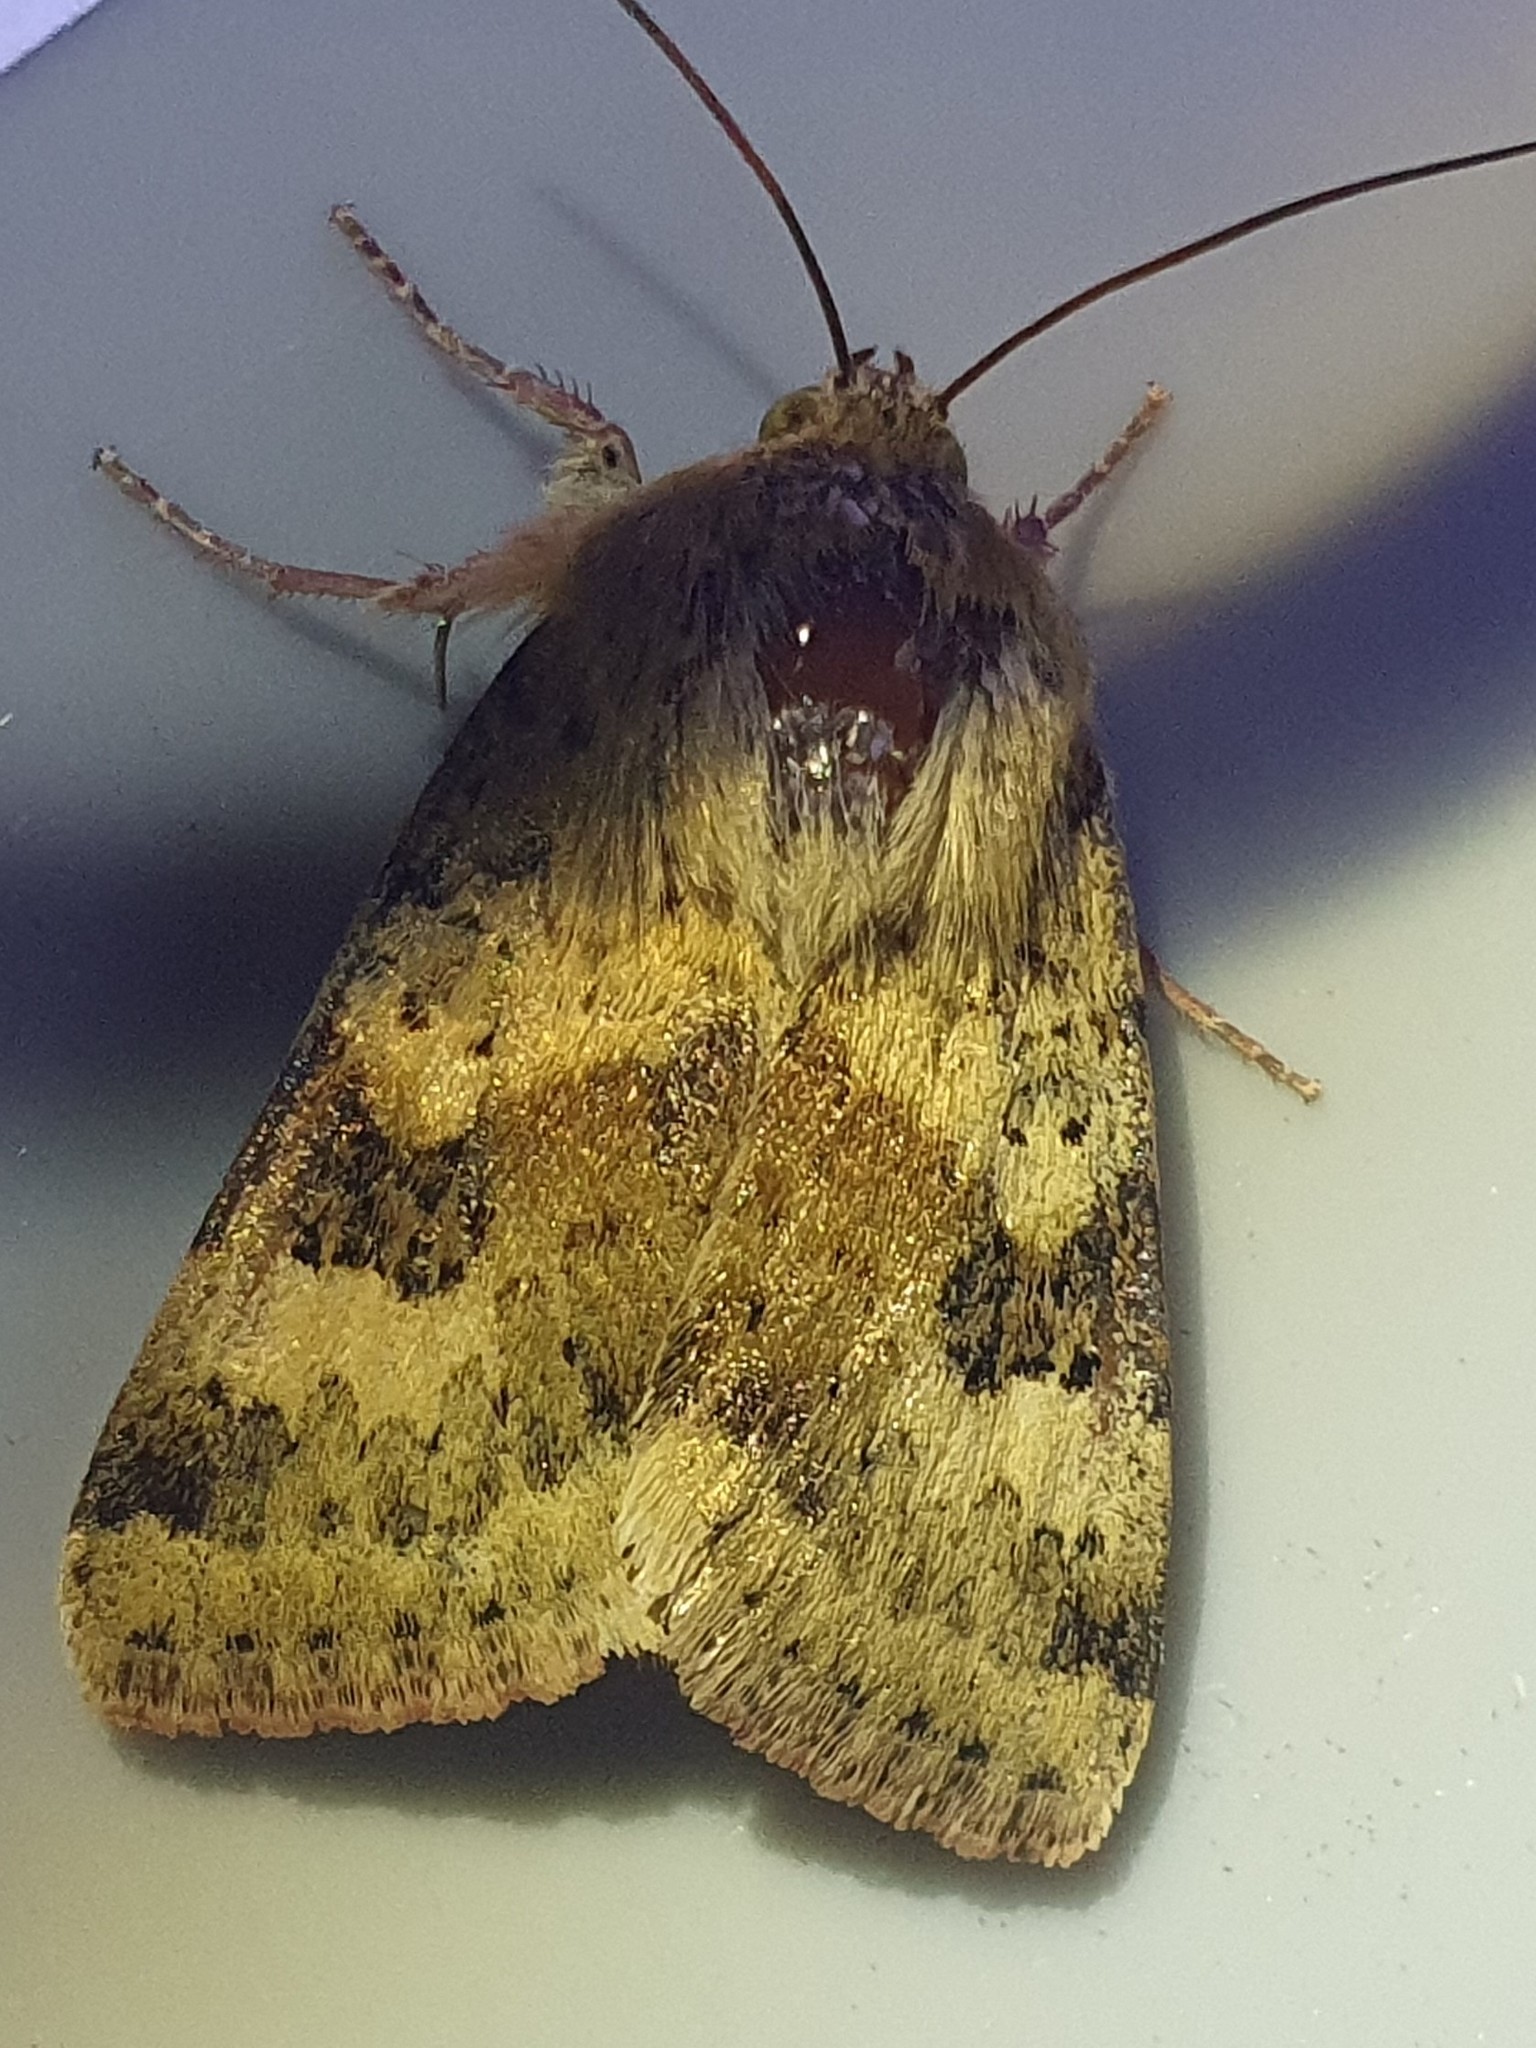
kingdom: Animalia
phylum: Arthropoda
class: Insecta
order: Lepidoptera
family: Noctuidae
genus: Heliothis
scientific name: Heliothis viriplaca
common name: Marbled clover
